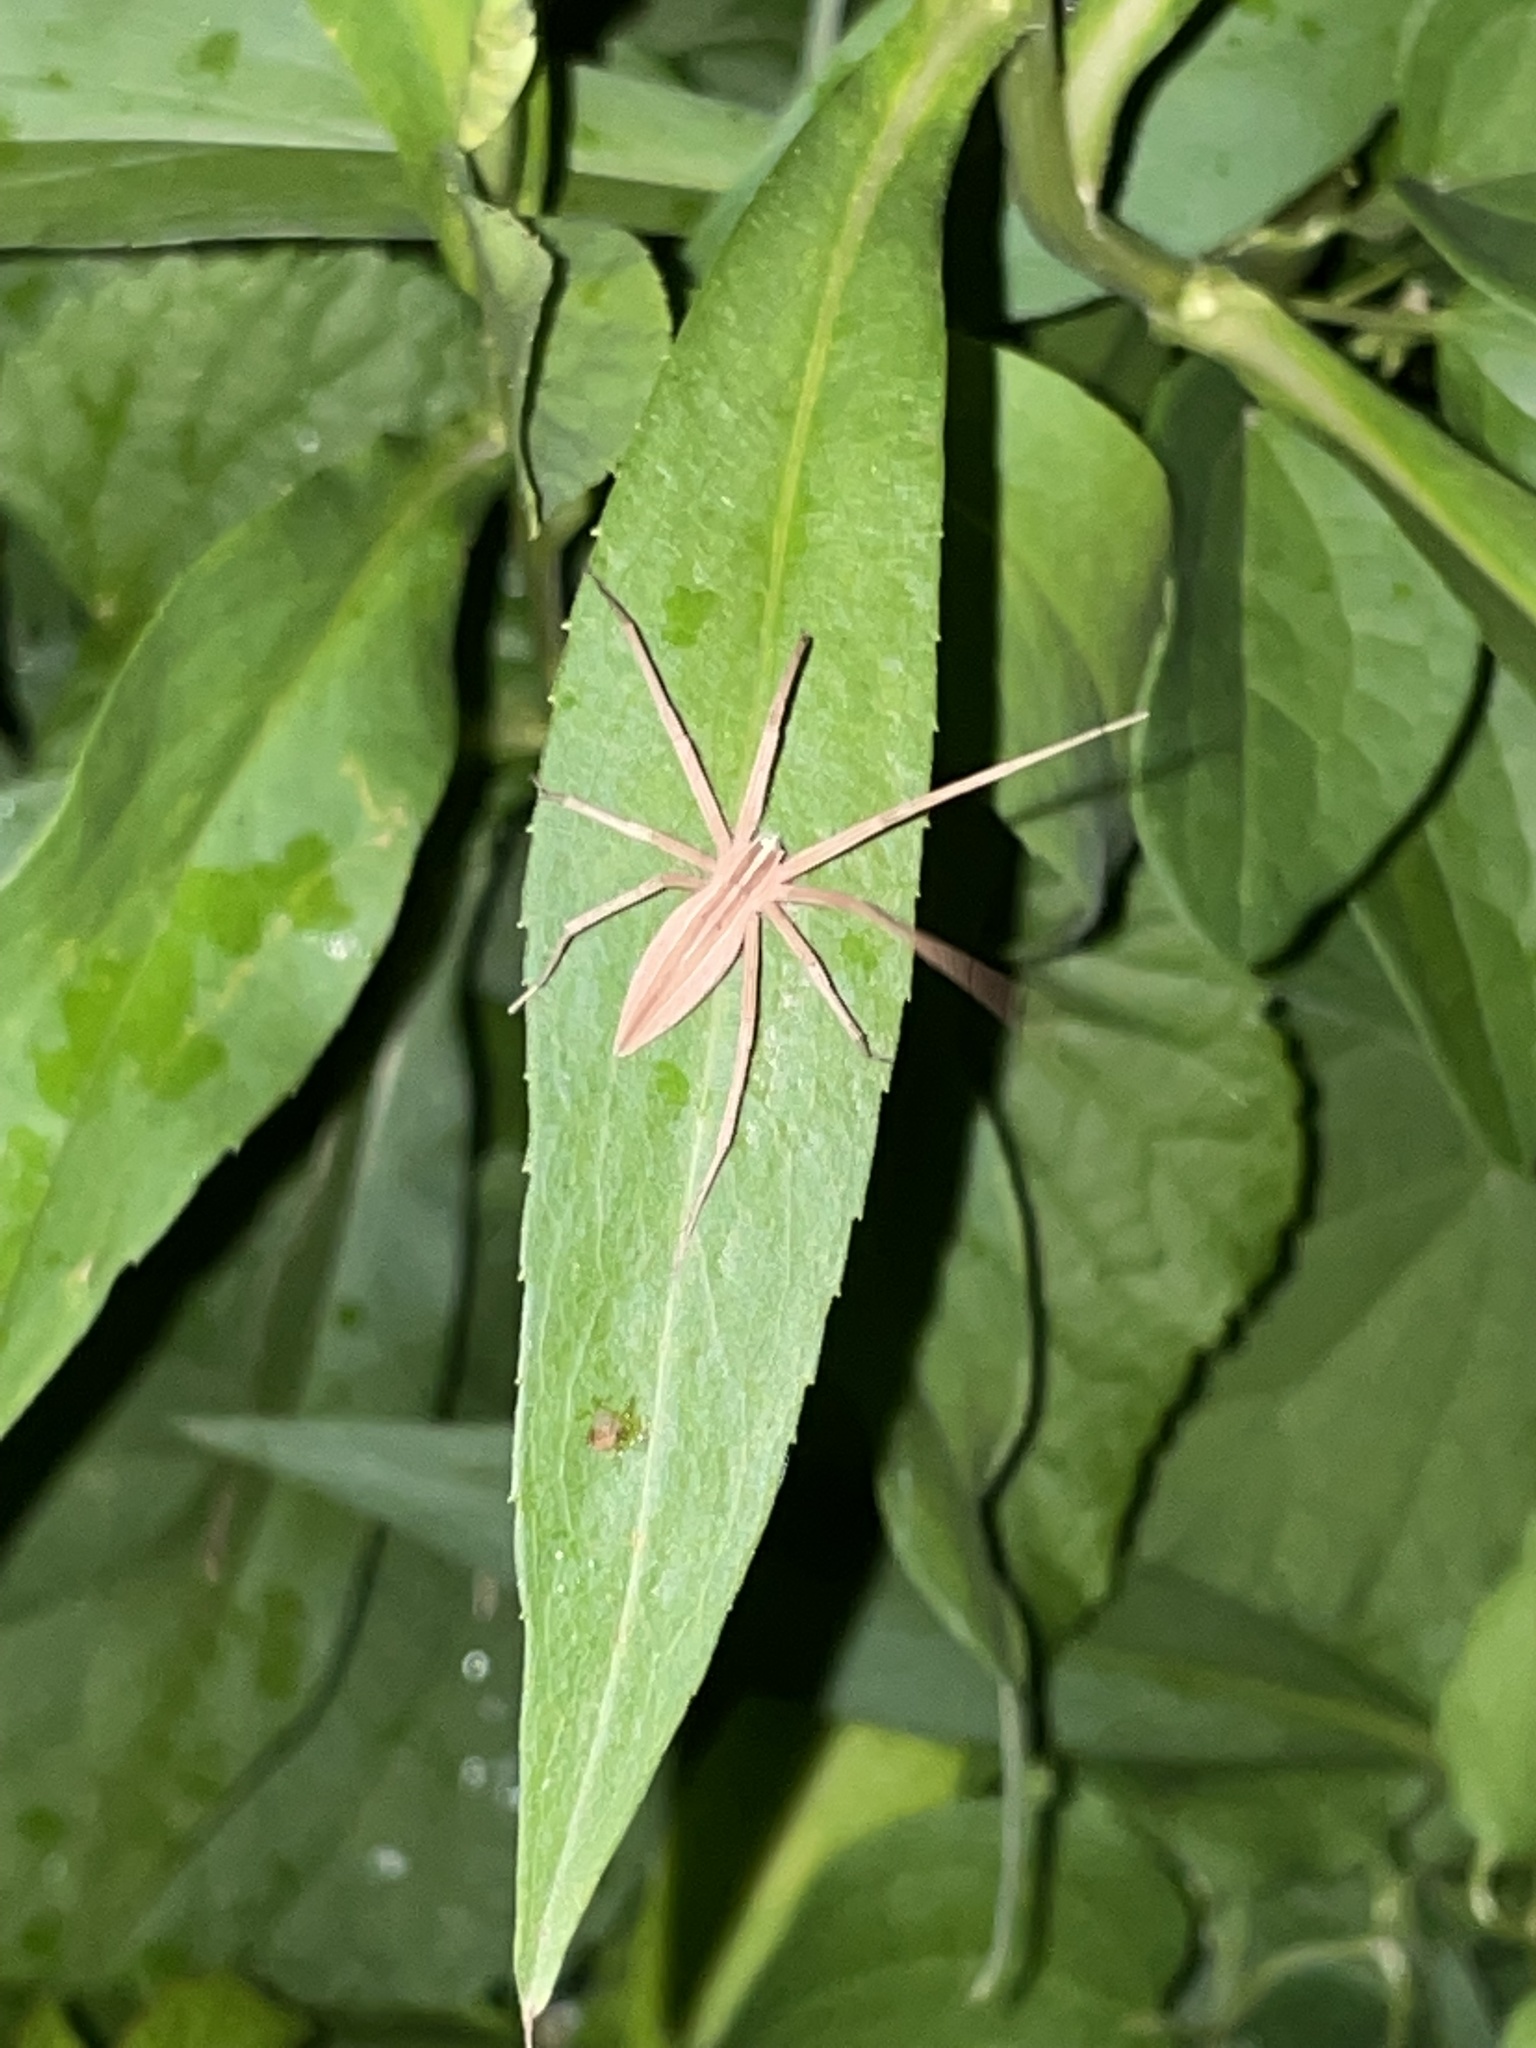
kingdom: Animalia
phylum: Arthropoda
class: Arachnida
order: Araneae
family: Pisauridae
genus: Pisaurina
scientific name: Pisaurina dubia
